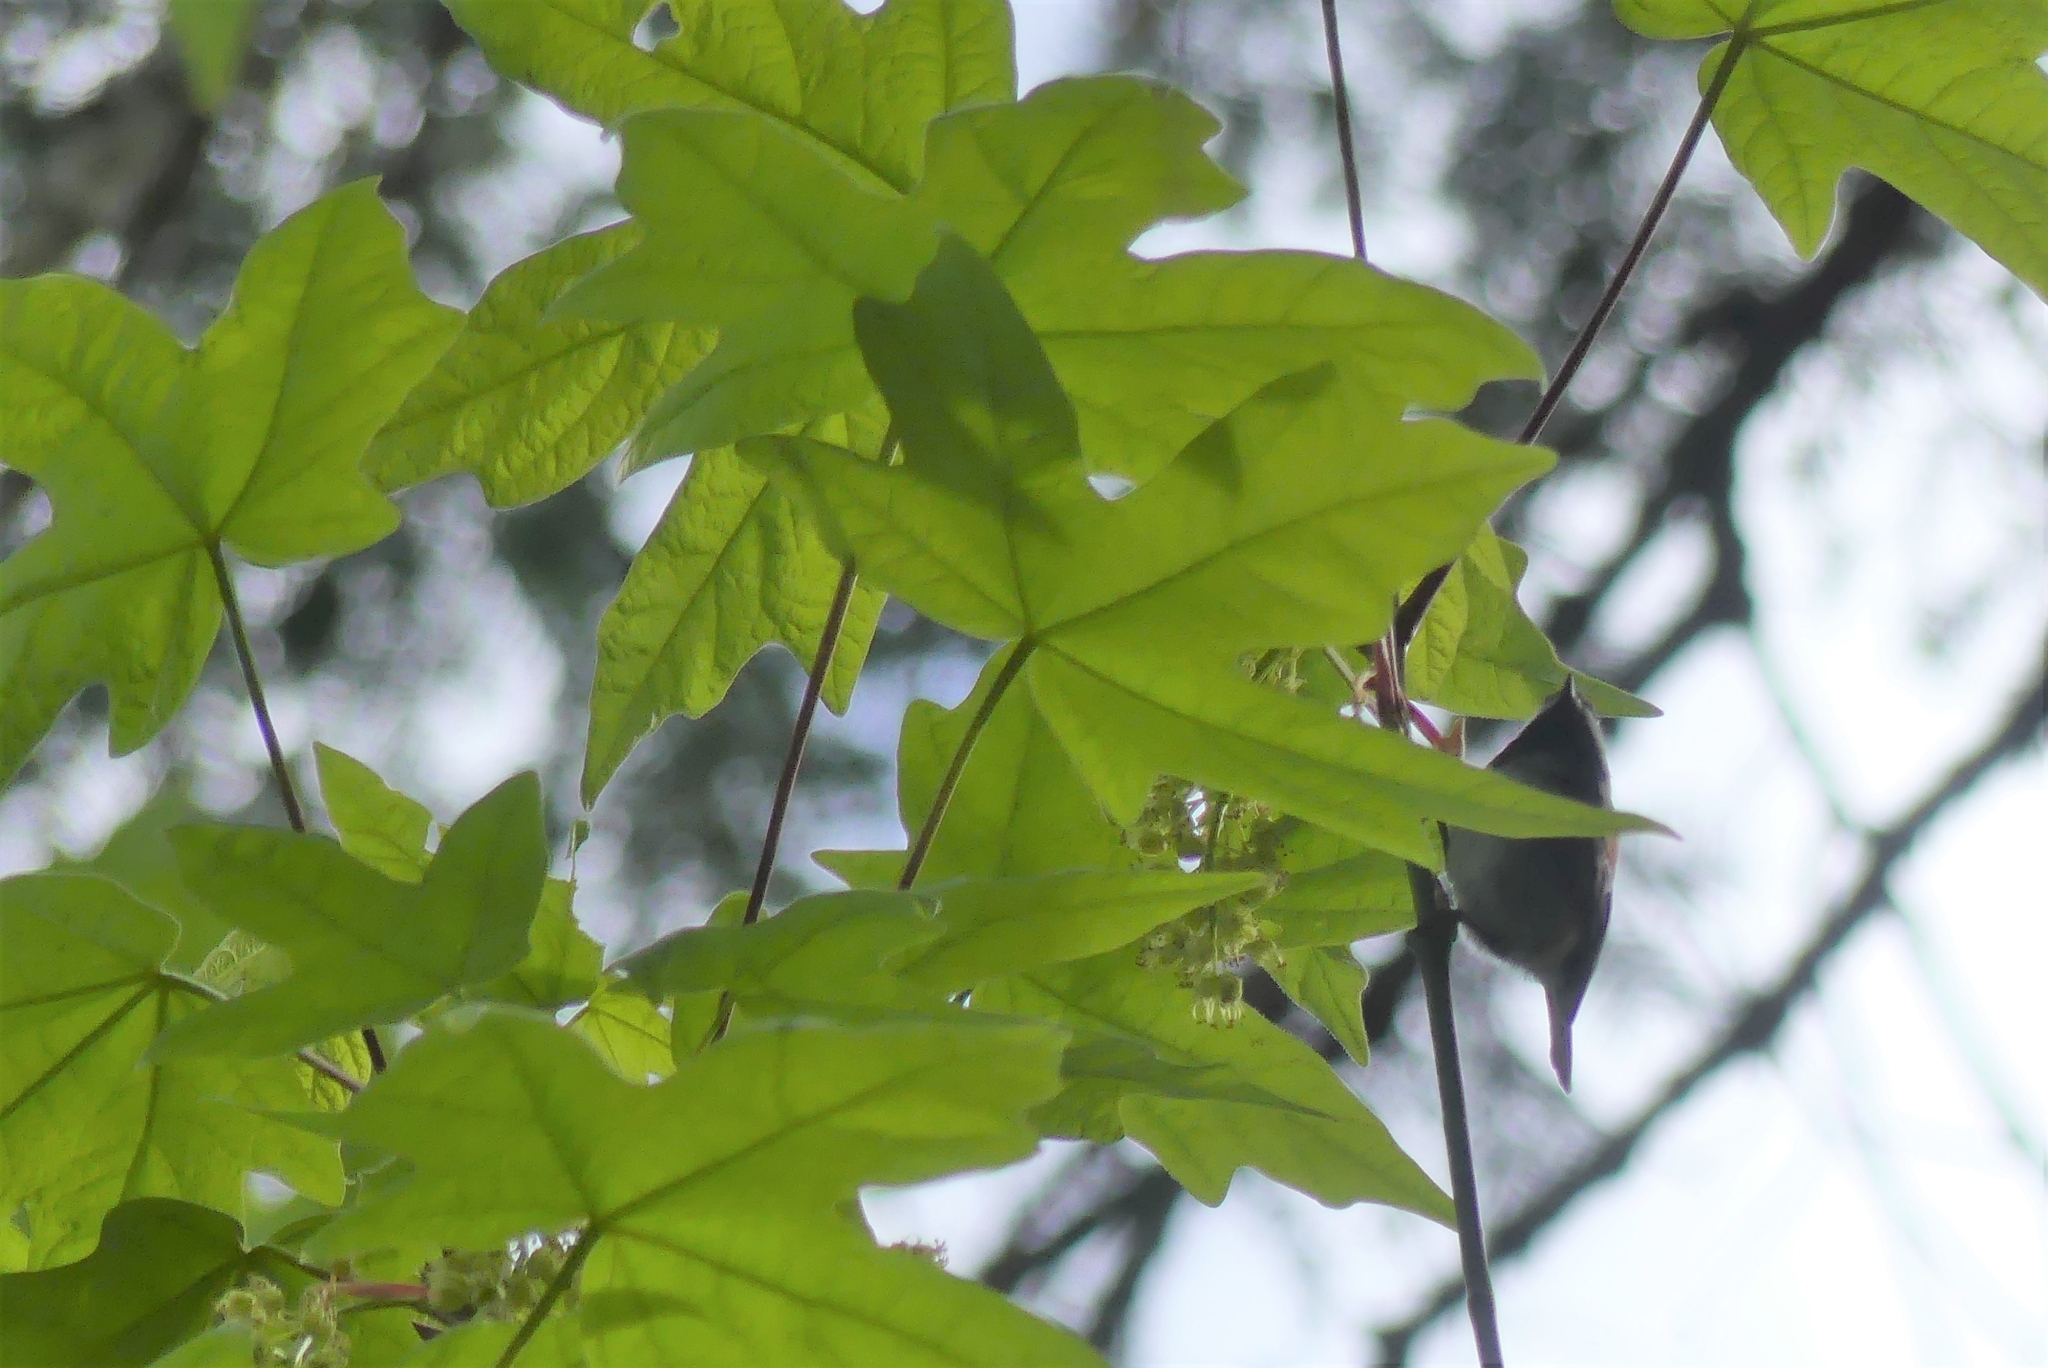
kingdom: Animalia
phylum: Chordata
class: Aves
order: Passeriformes
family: Paridae
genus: Poecile
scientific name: Poecile rufescens
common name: Chestnut-backed chickadee
